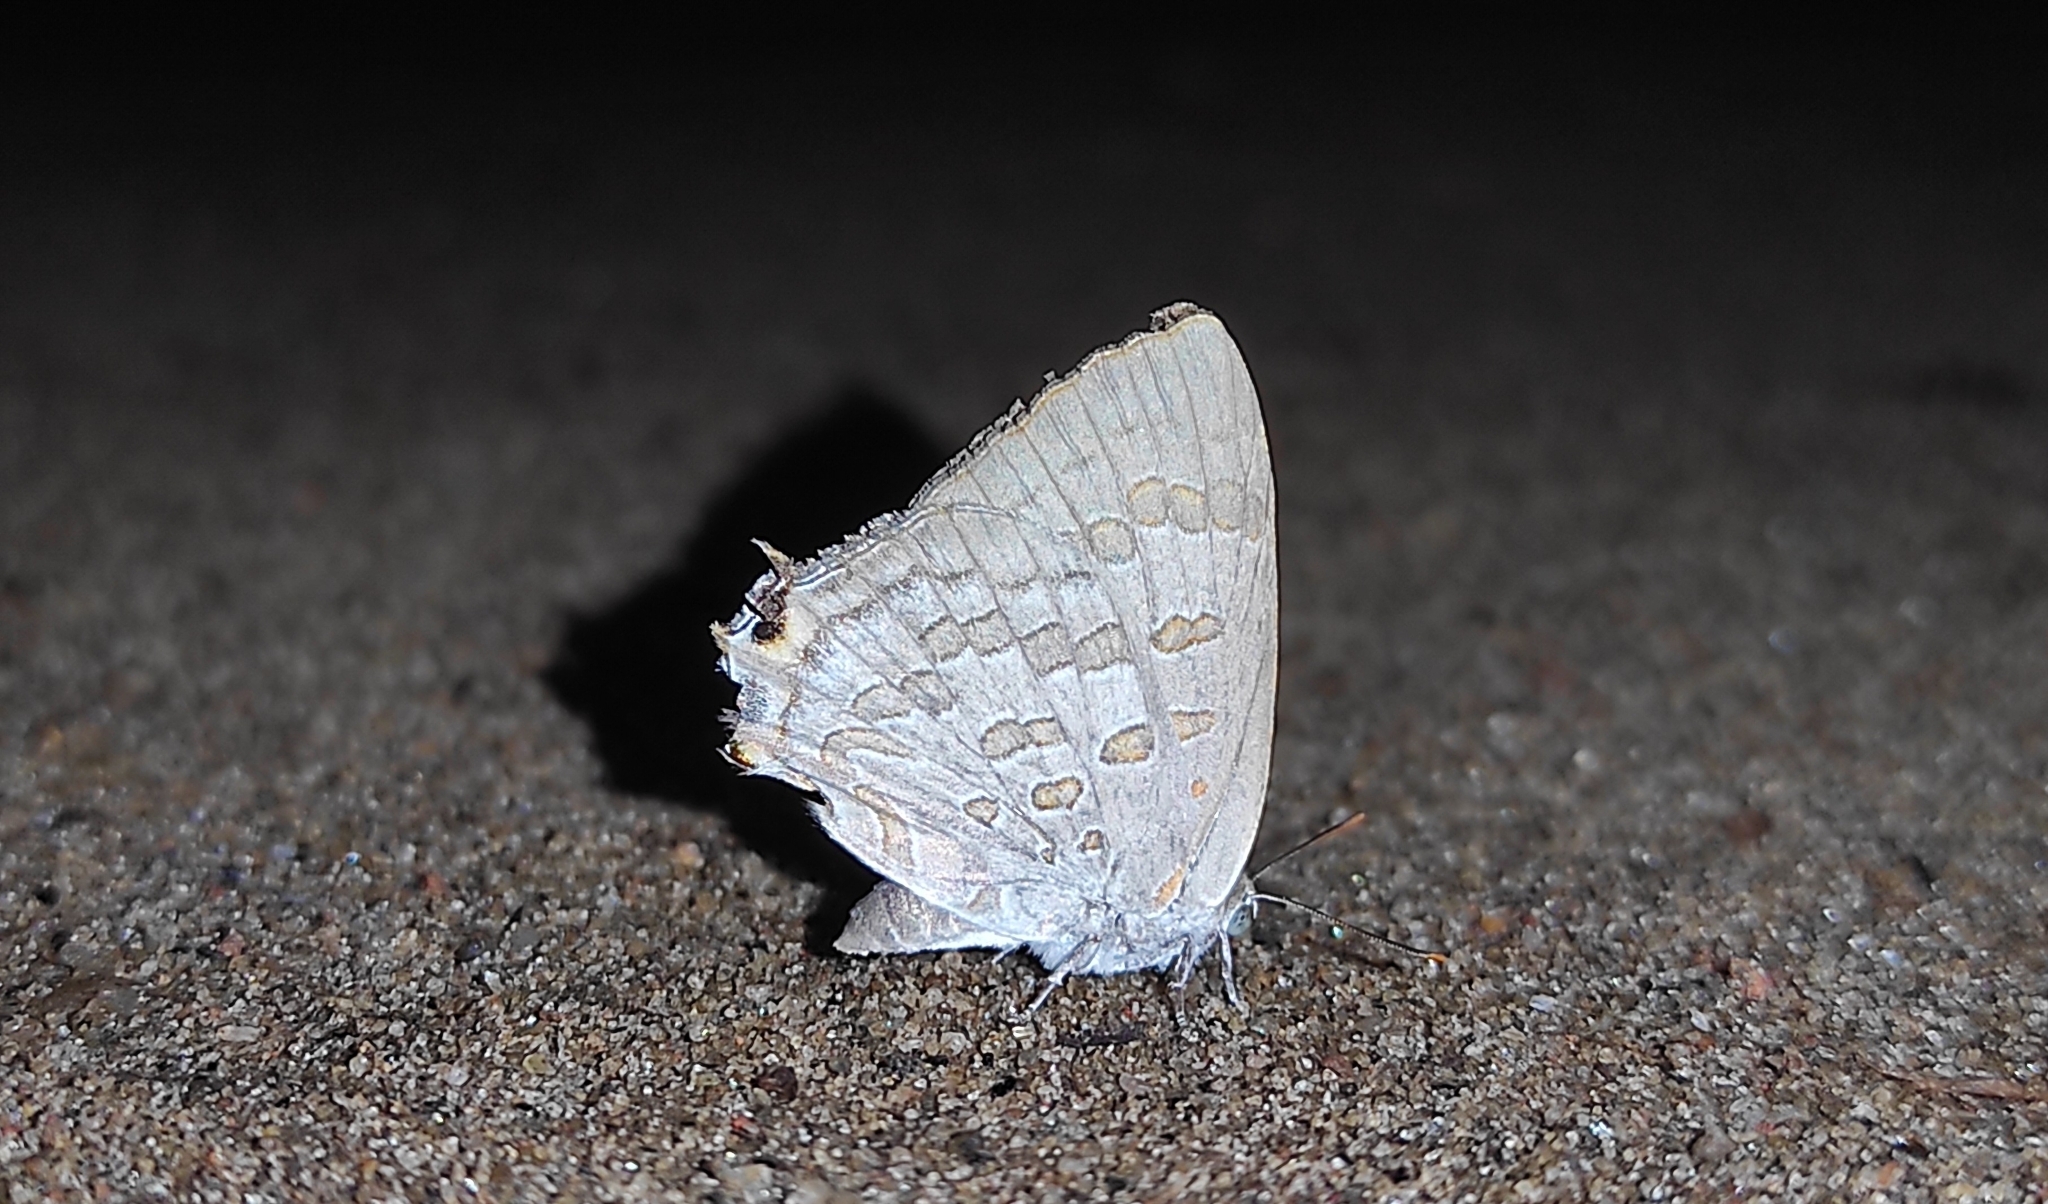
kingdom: Animalia
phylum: Arthropoda
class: Insecta
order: Lepidoptera
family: Lycaenidae
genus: Zesius
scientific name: Zesius chrysomallus
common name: Redspot
